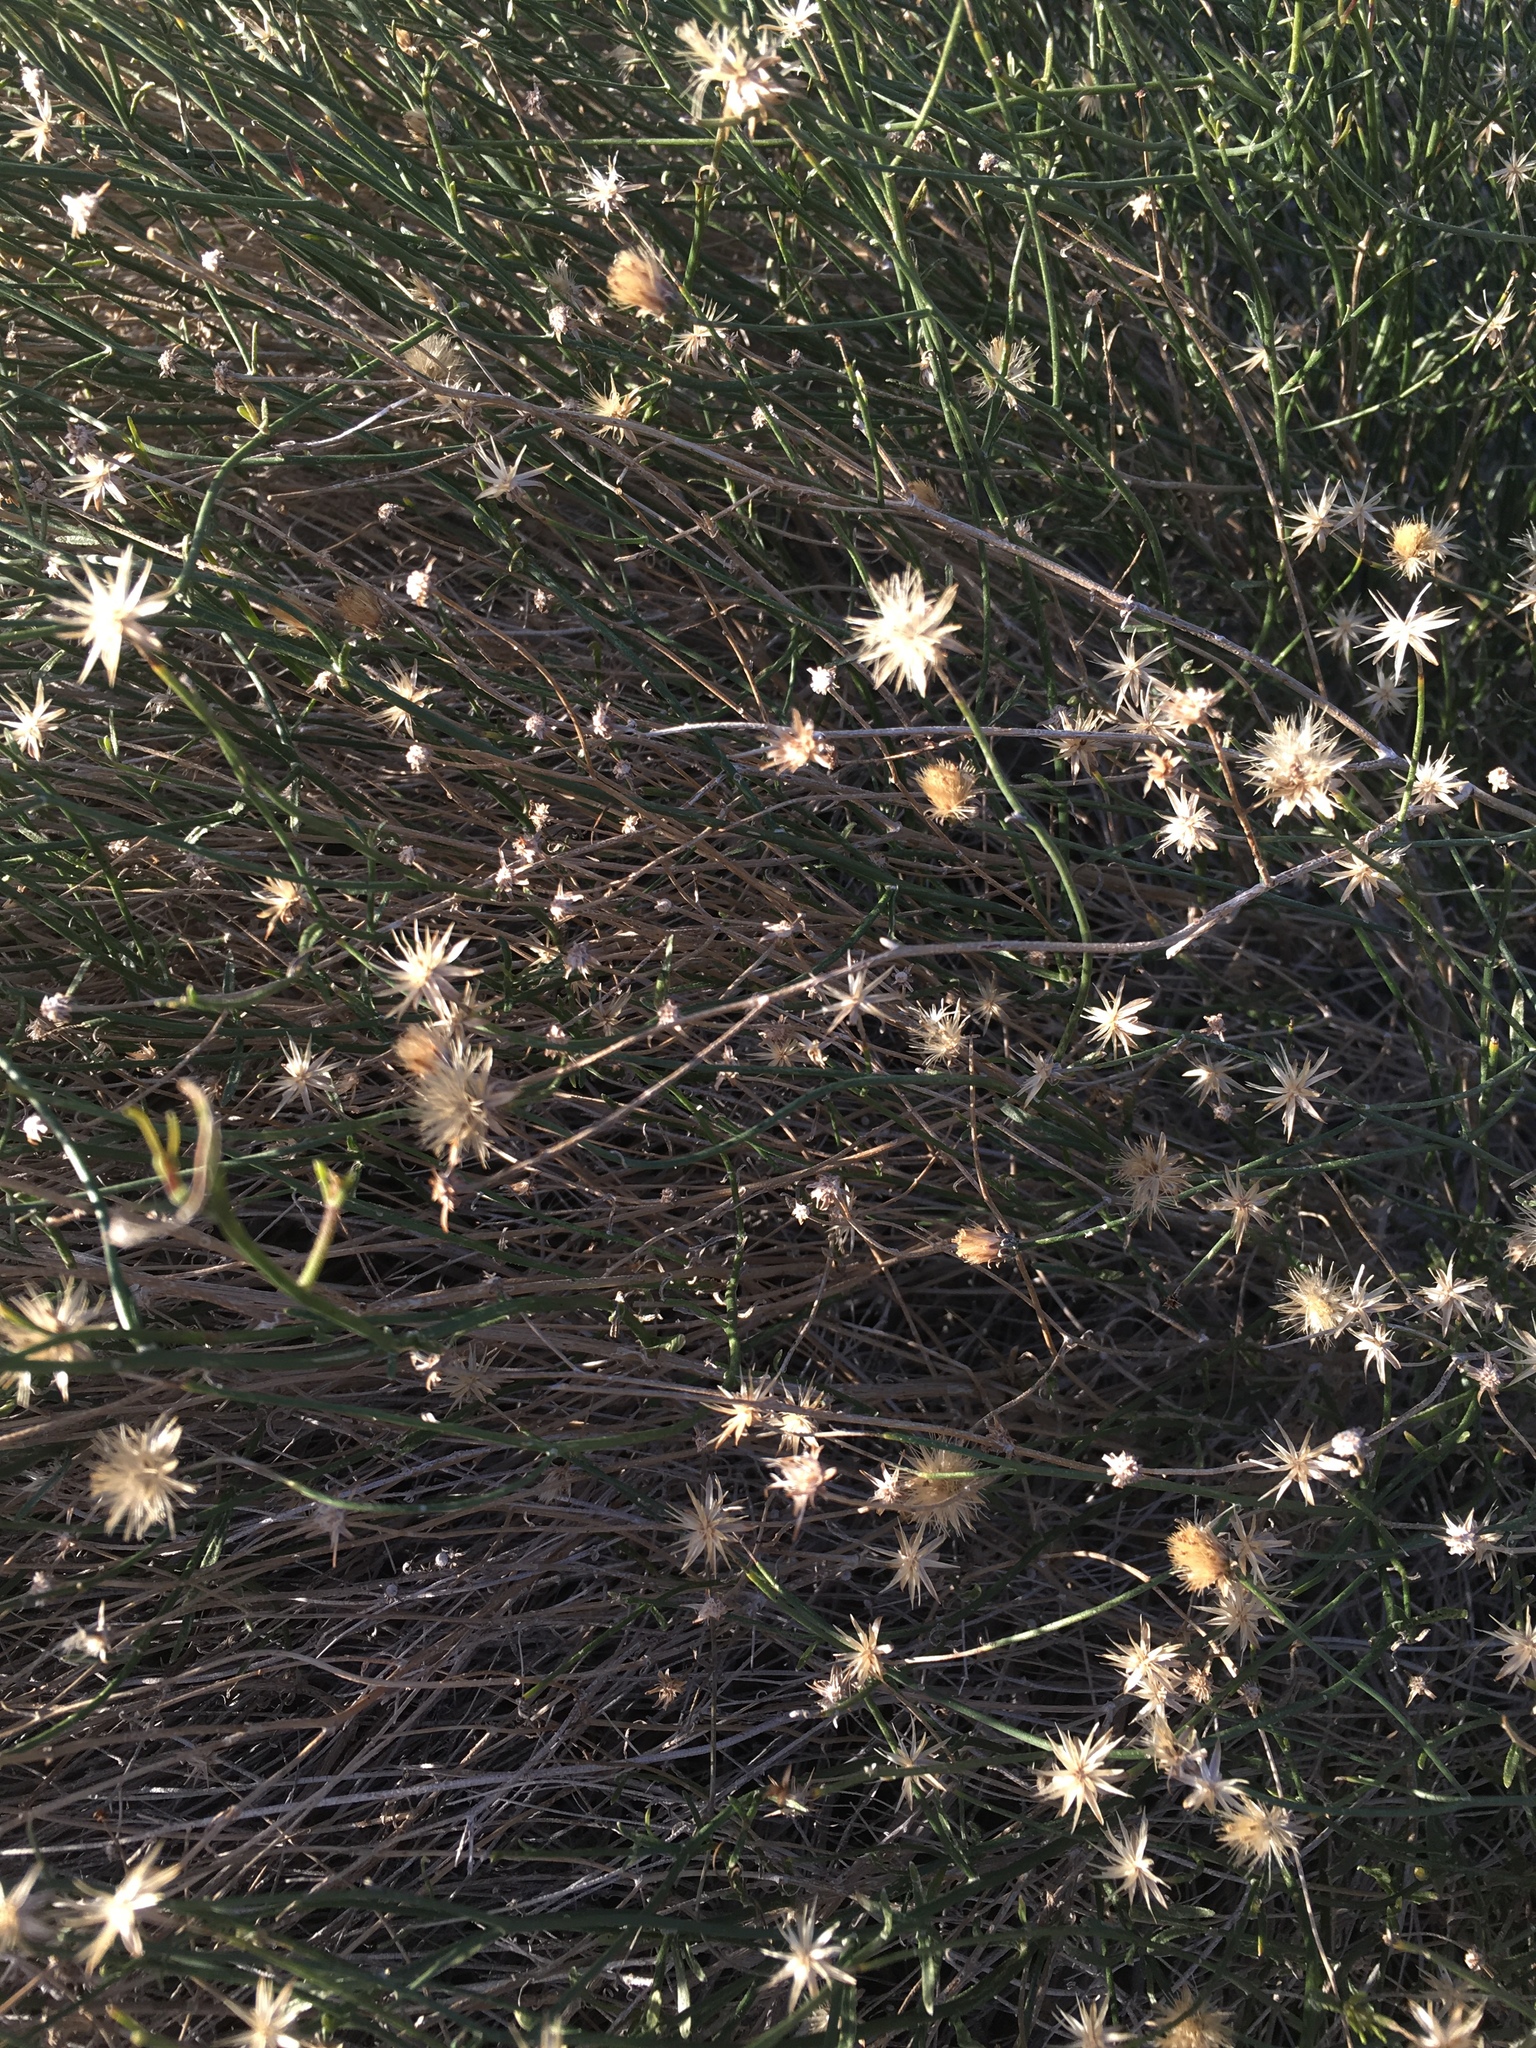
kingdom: Plantae
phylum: Tracheophyta
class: Magnoliopsida
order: Asterales
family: Asteraceae
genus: Bebbia
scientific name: Bebbia juncea
